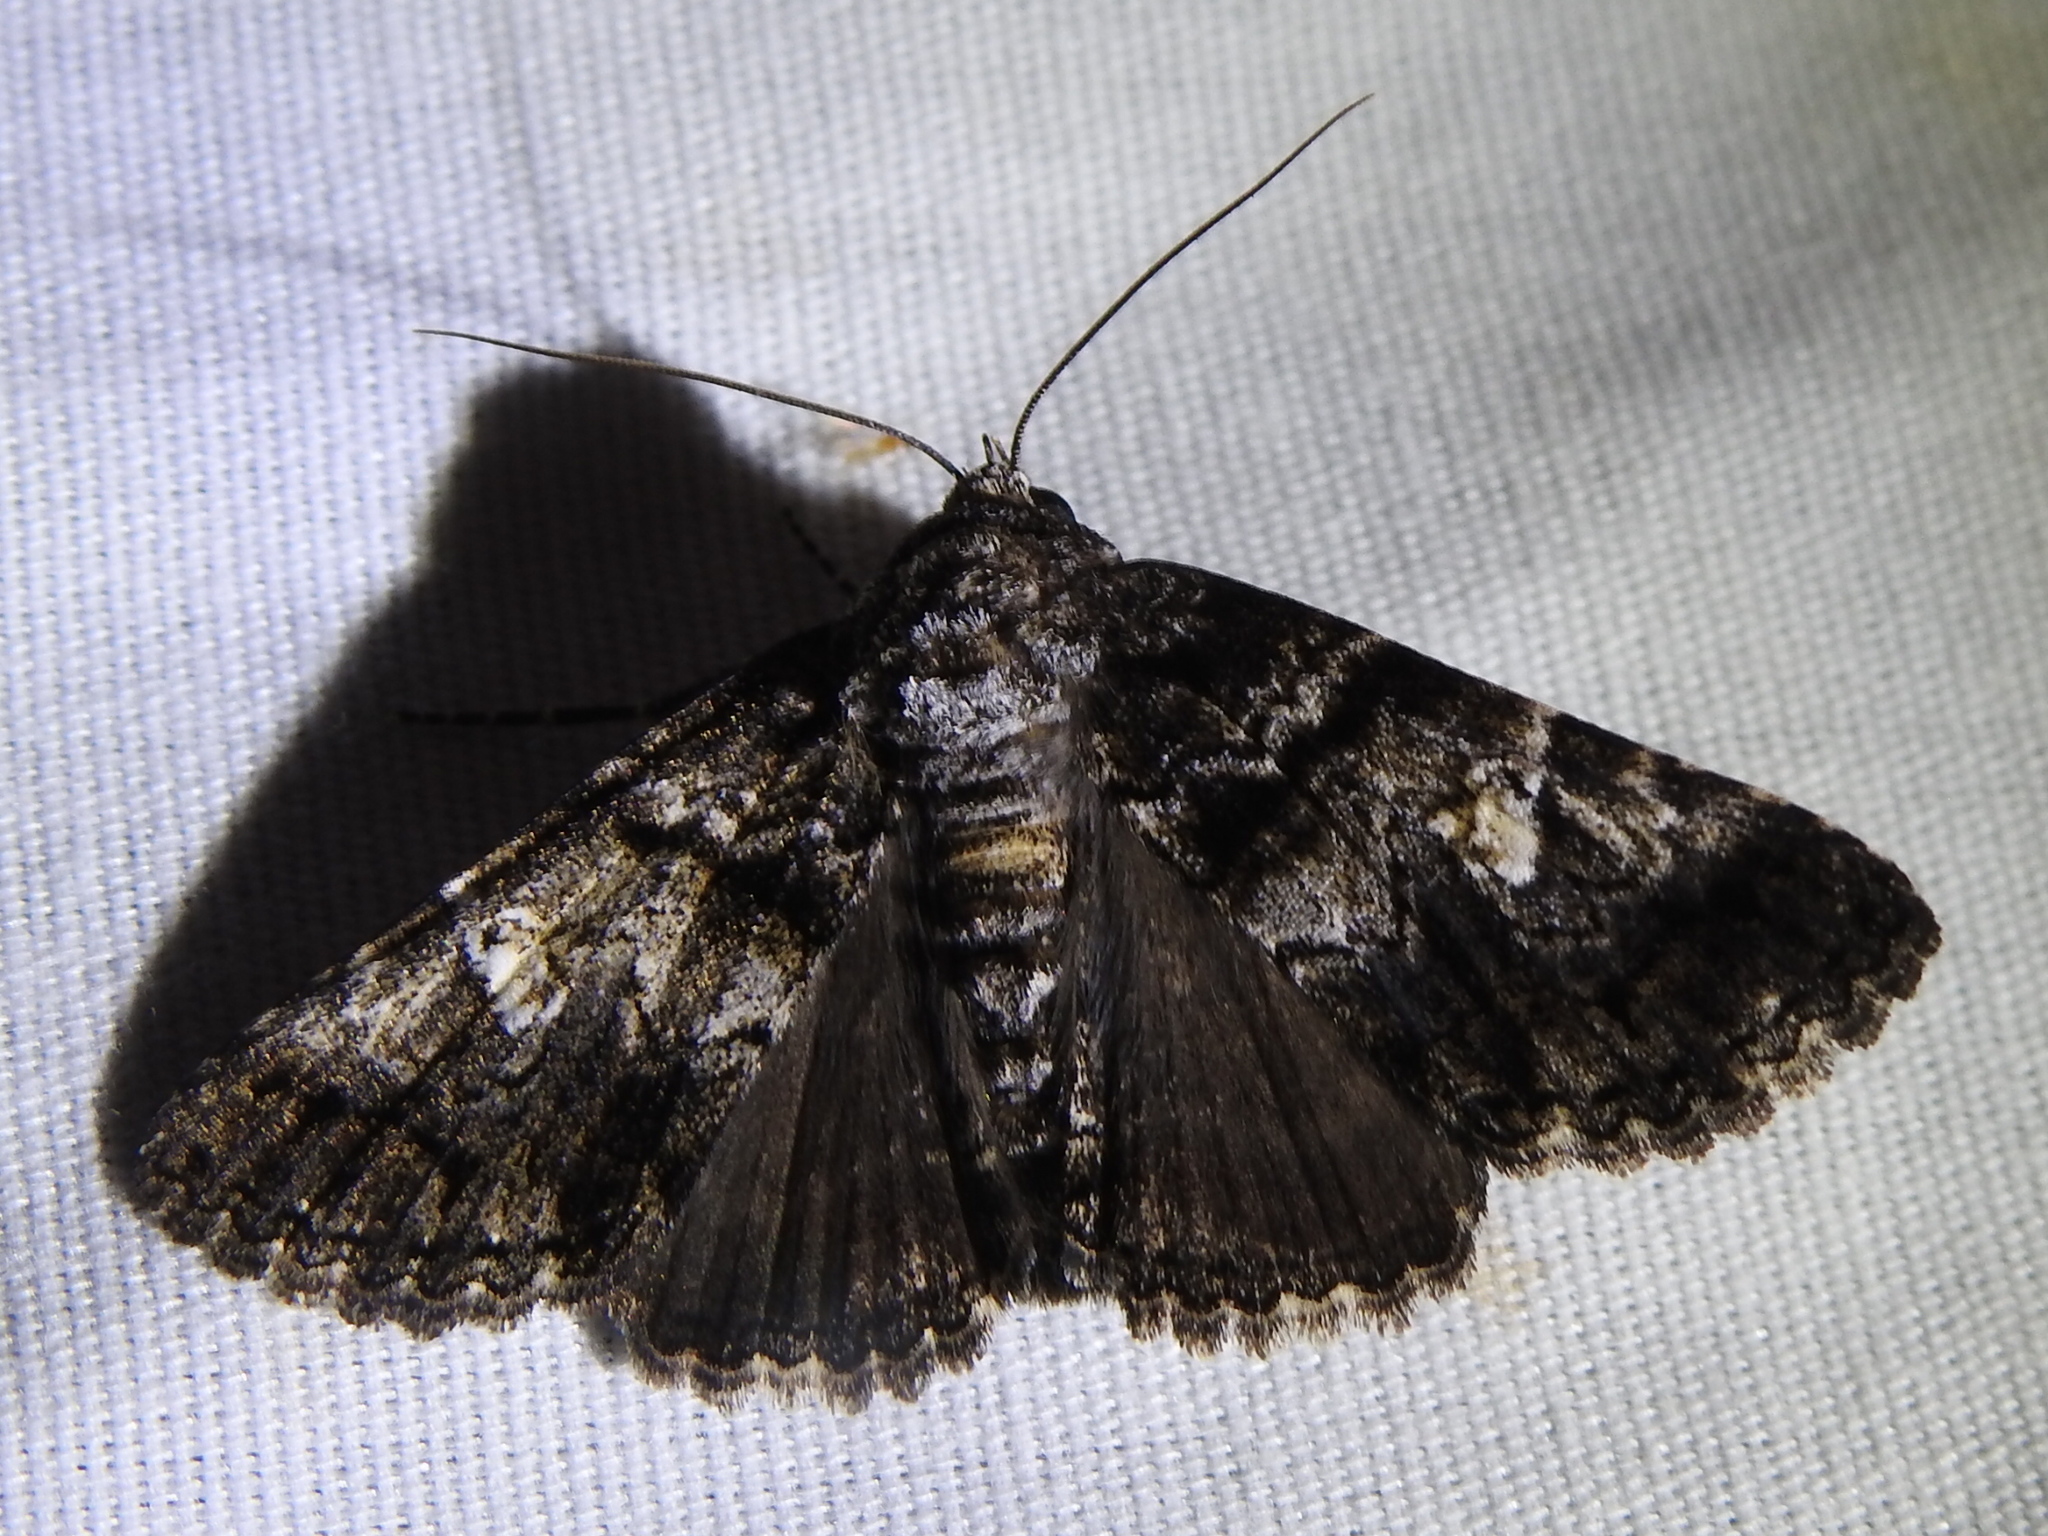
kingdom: Animalia
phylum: Arthropoda
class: Insecta
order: Lepidoptera
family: Erebidae
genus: Metria
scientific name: Metria amella
